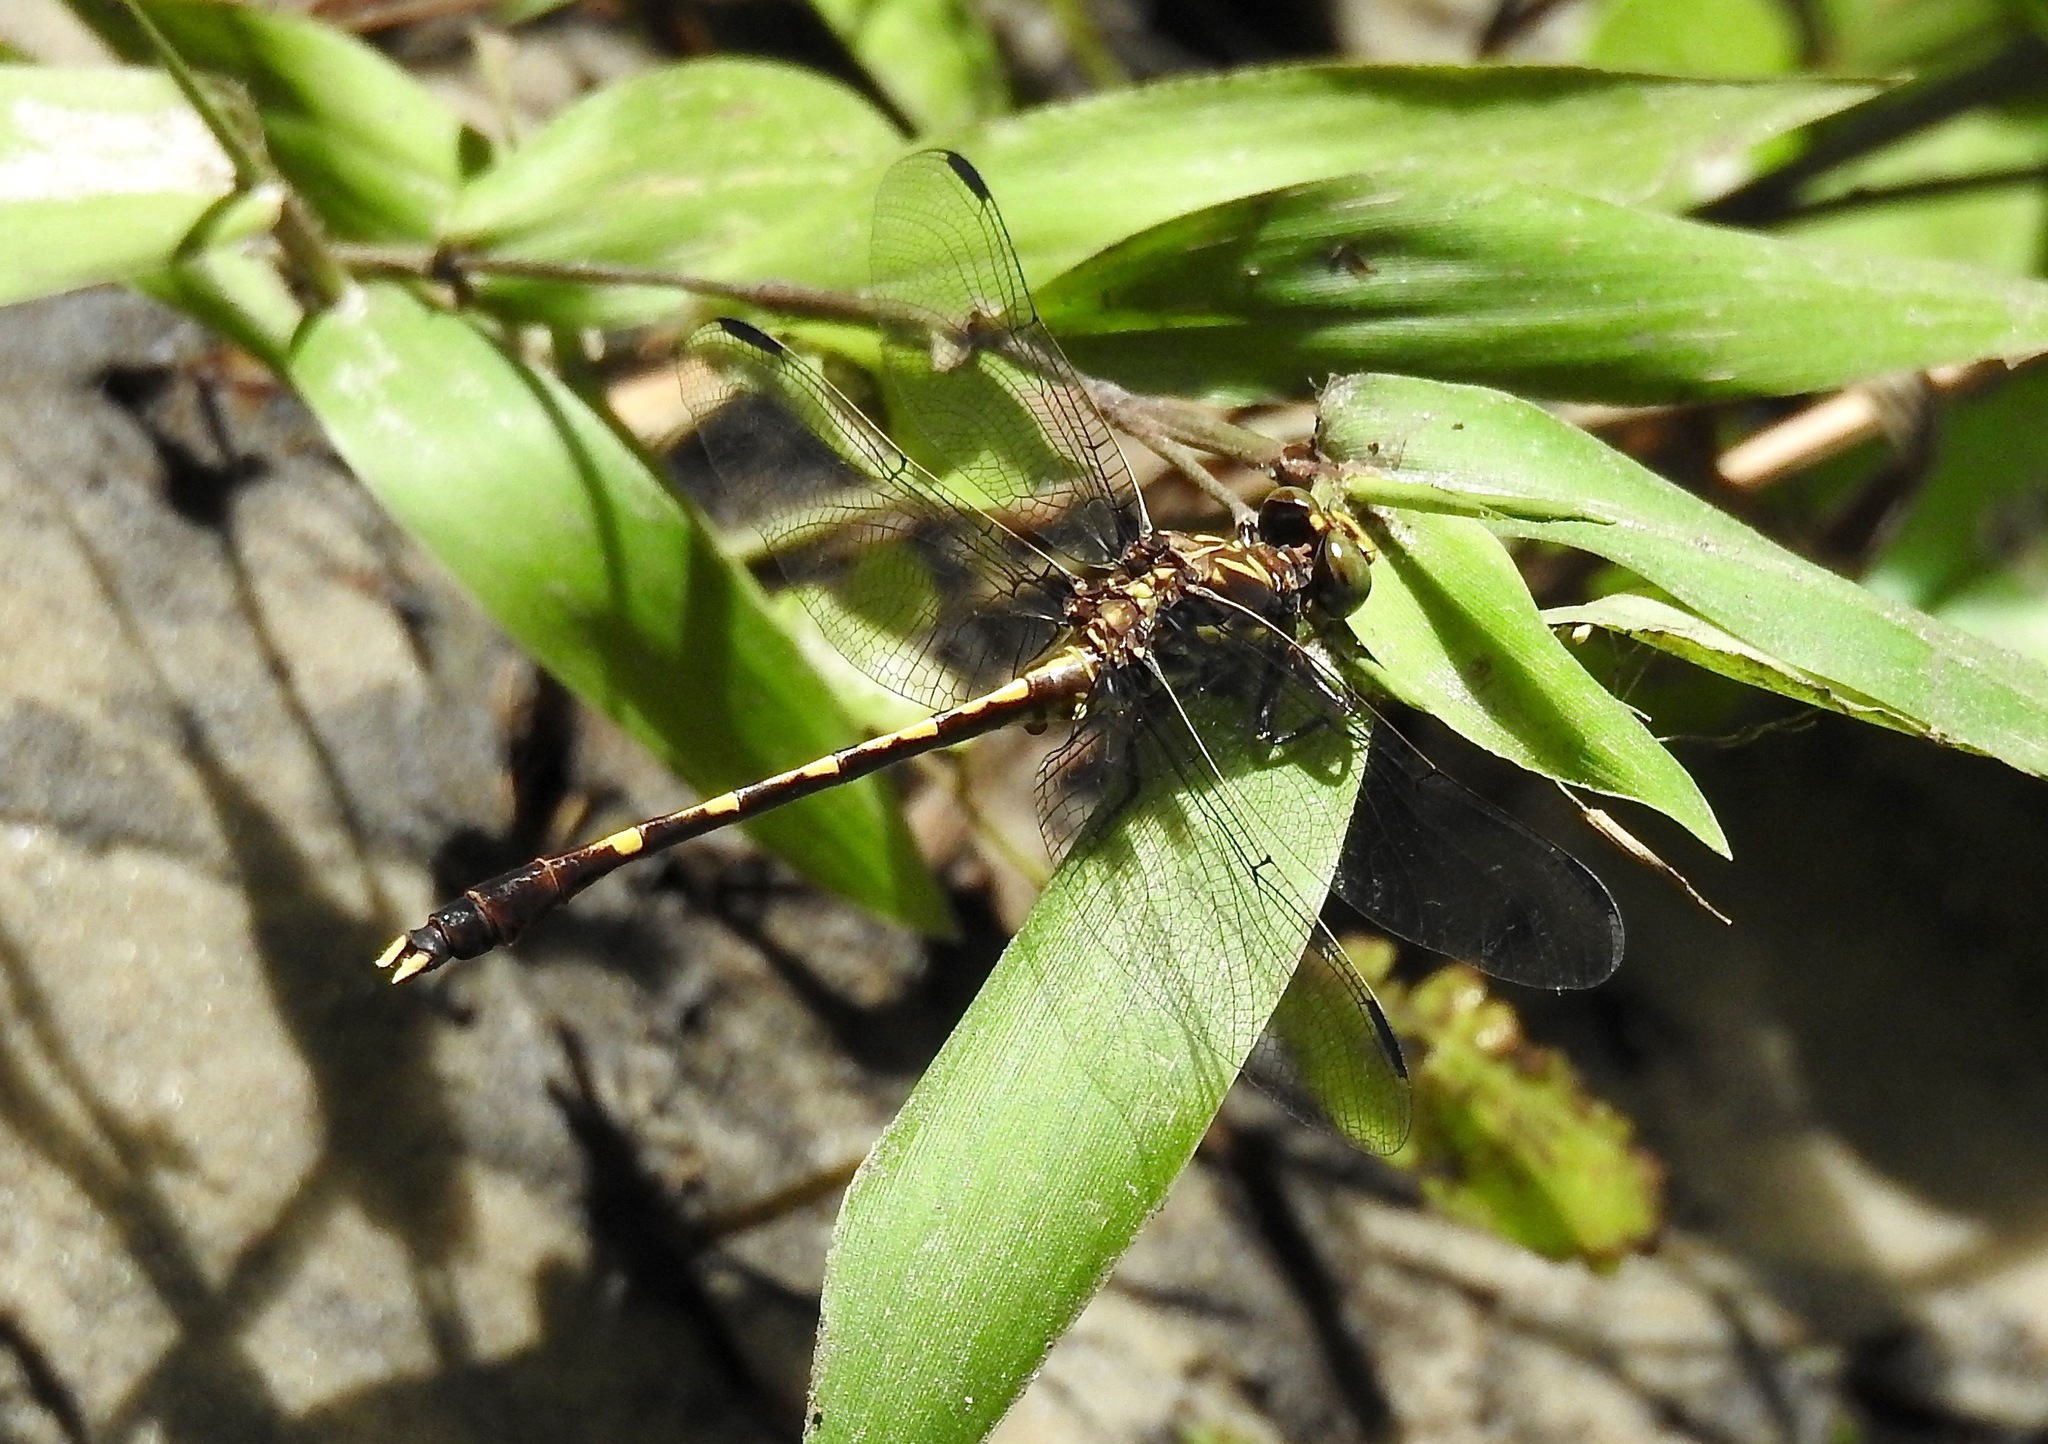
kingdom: Animalia
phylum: Arthropoda
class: Insecta
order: Odonata
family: Gomphidae
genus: Progomphus
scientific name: Progomphus obscurus
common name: Common sanddragon
